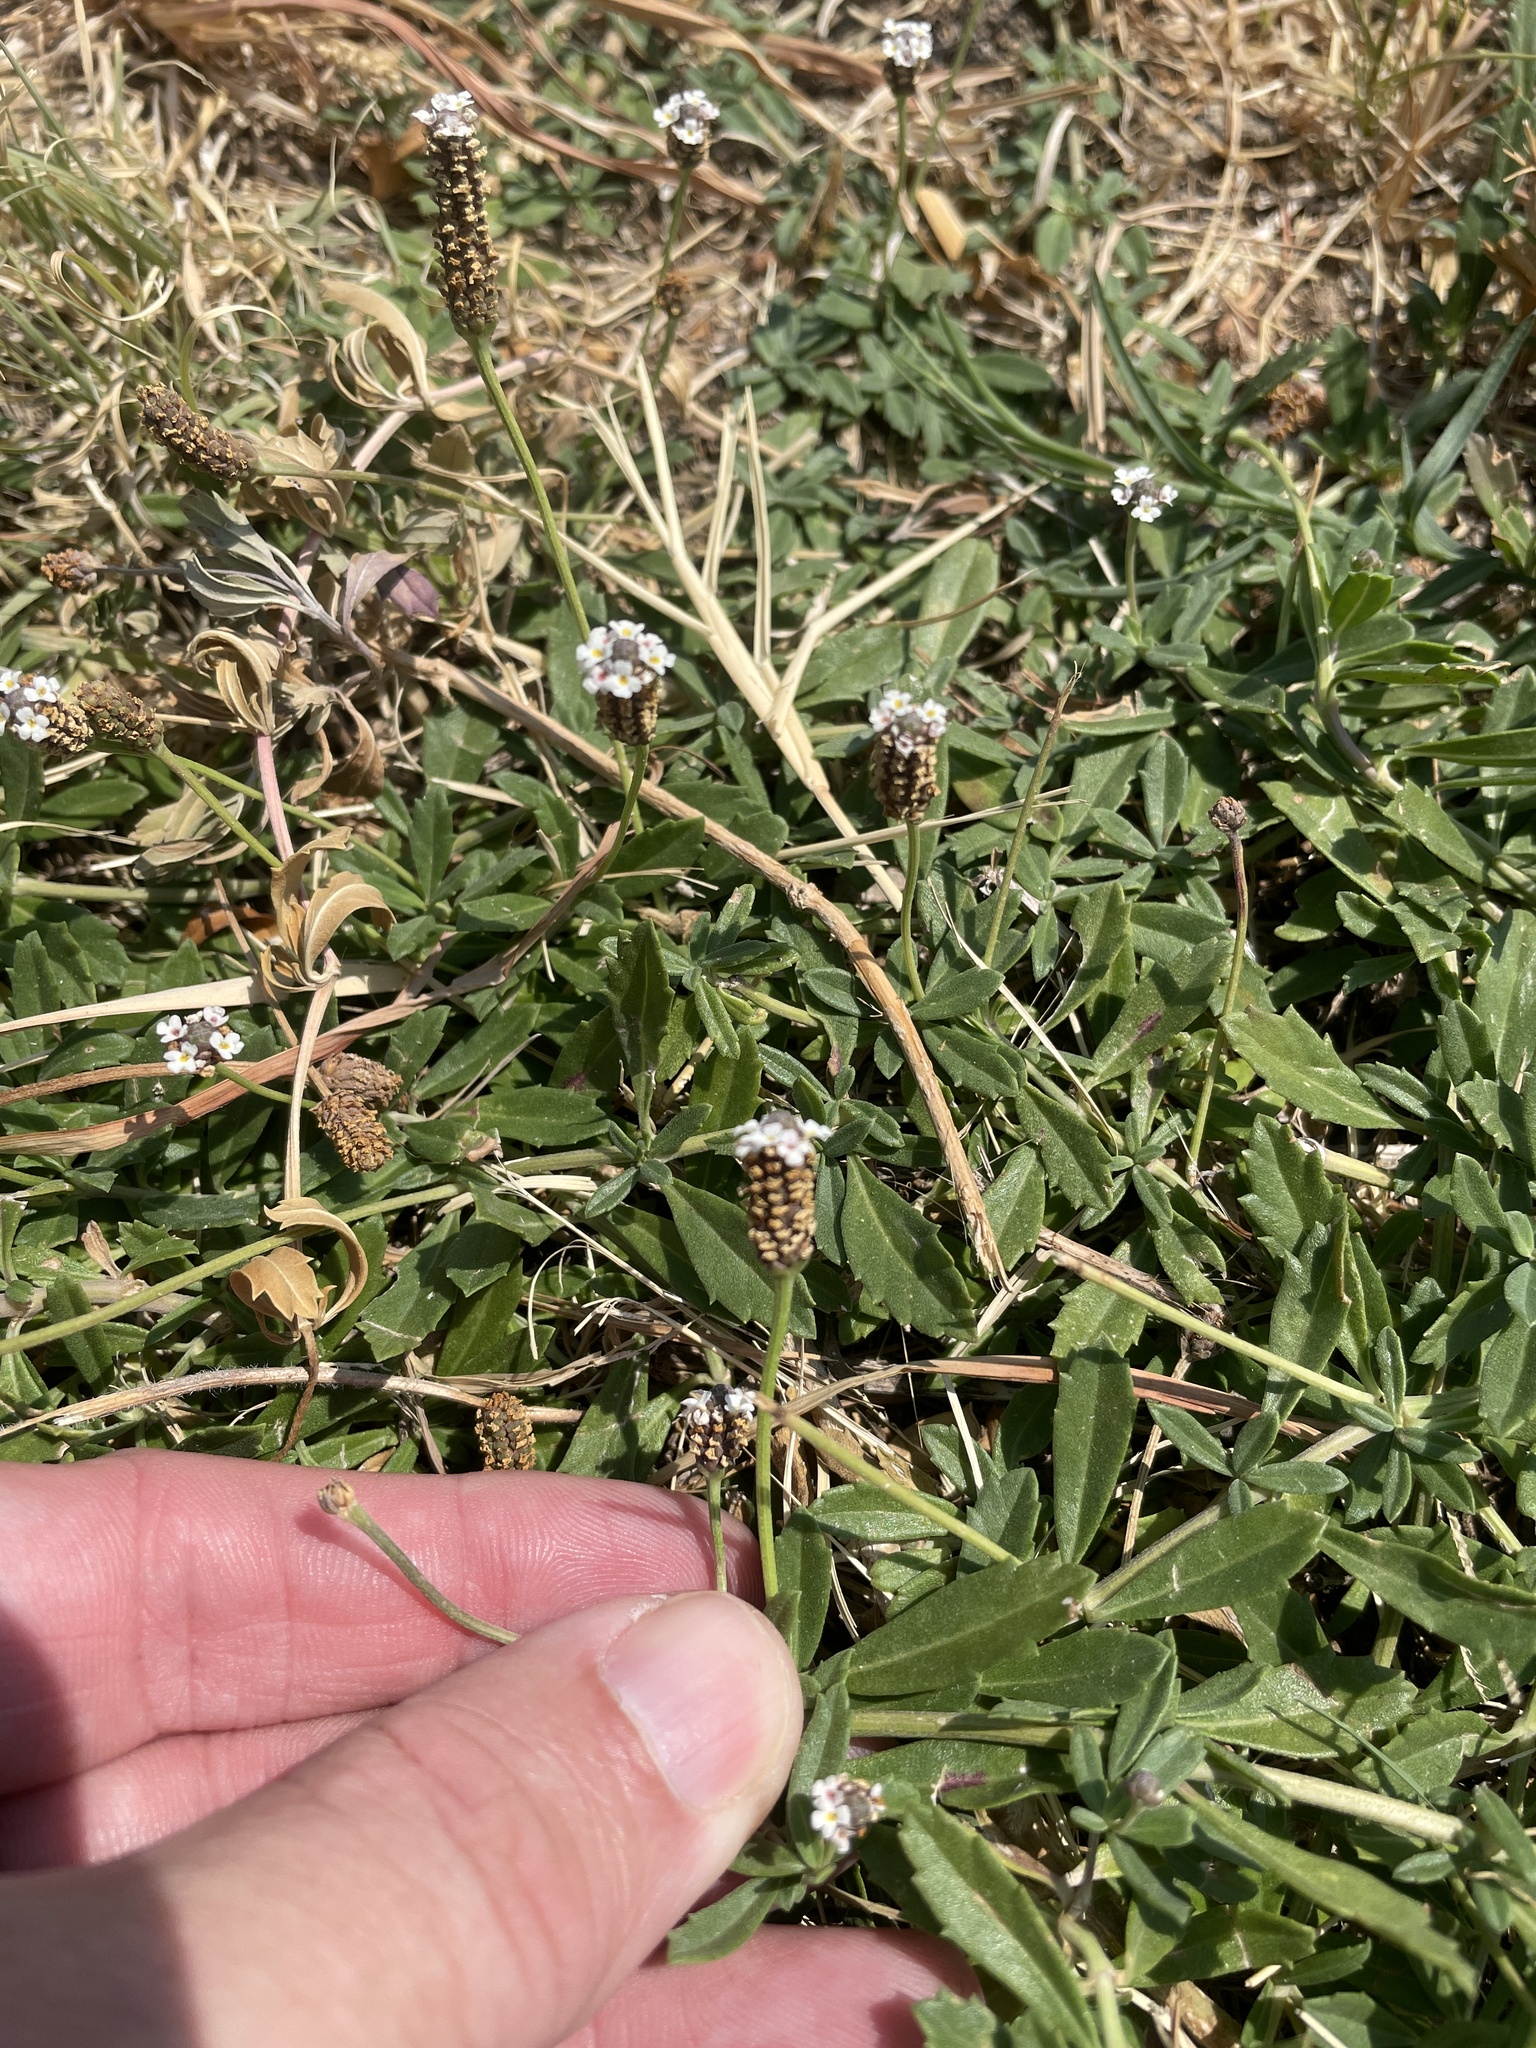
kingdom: Plantae
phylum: Tracheophyta
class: Magnoliopsida
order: Lamiales
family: Verbenaceae
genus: Phyla
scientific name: Phyla nodiflora
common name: Frogfruit
